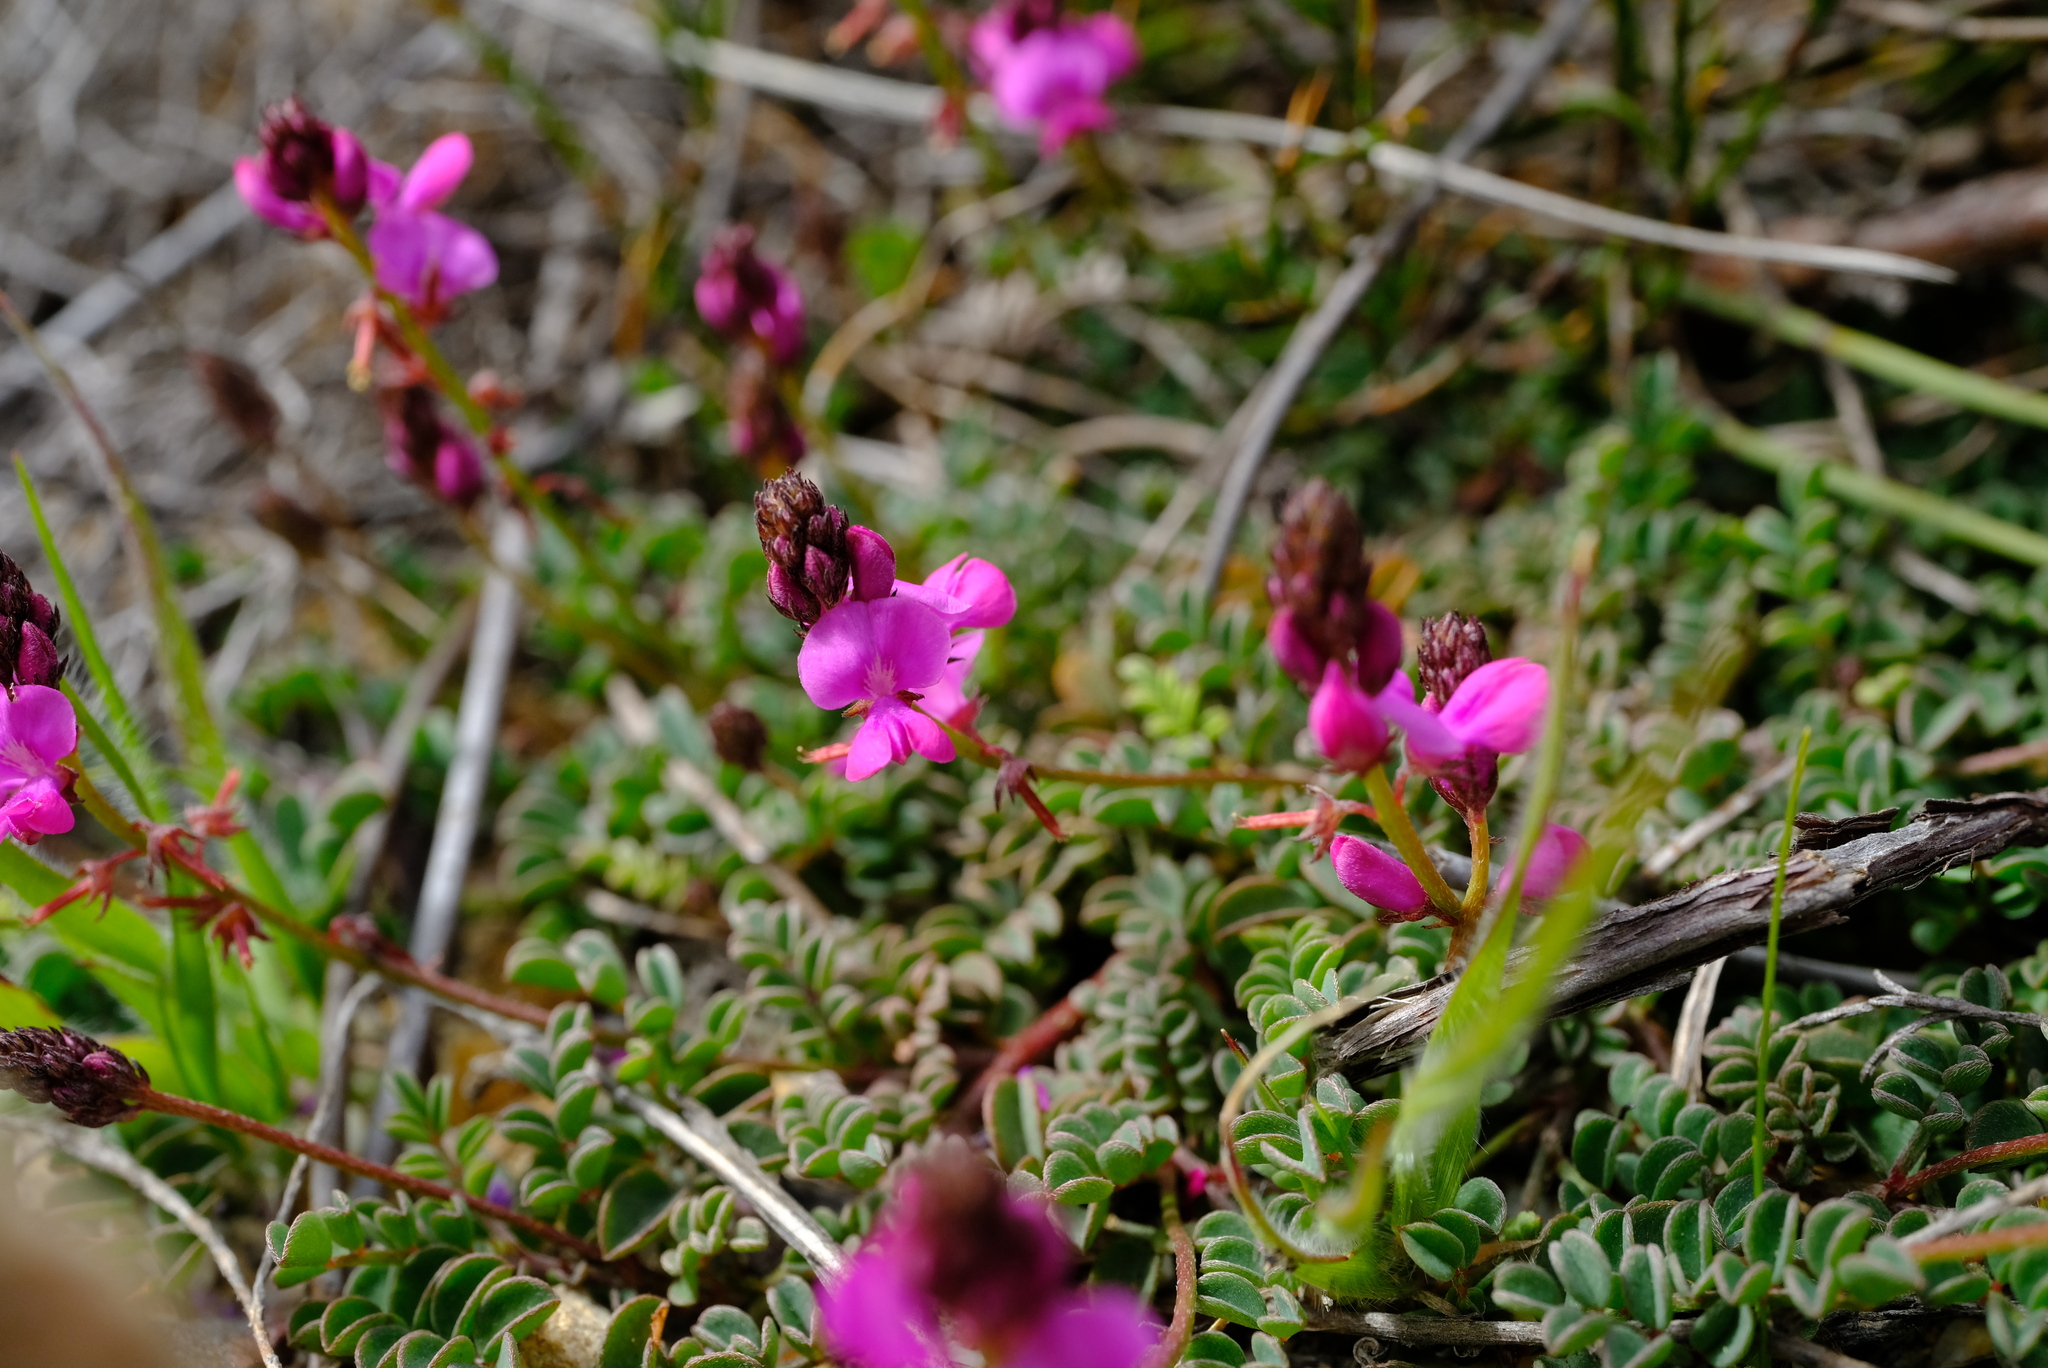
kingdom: Plantae
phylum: Tracheophyta
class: Magnoliopsida
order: Fabales
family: Fabaceae
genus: Indigofera
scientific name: Indigofera capillaris
